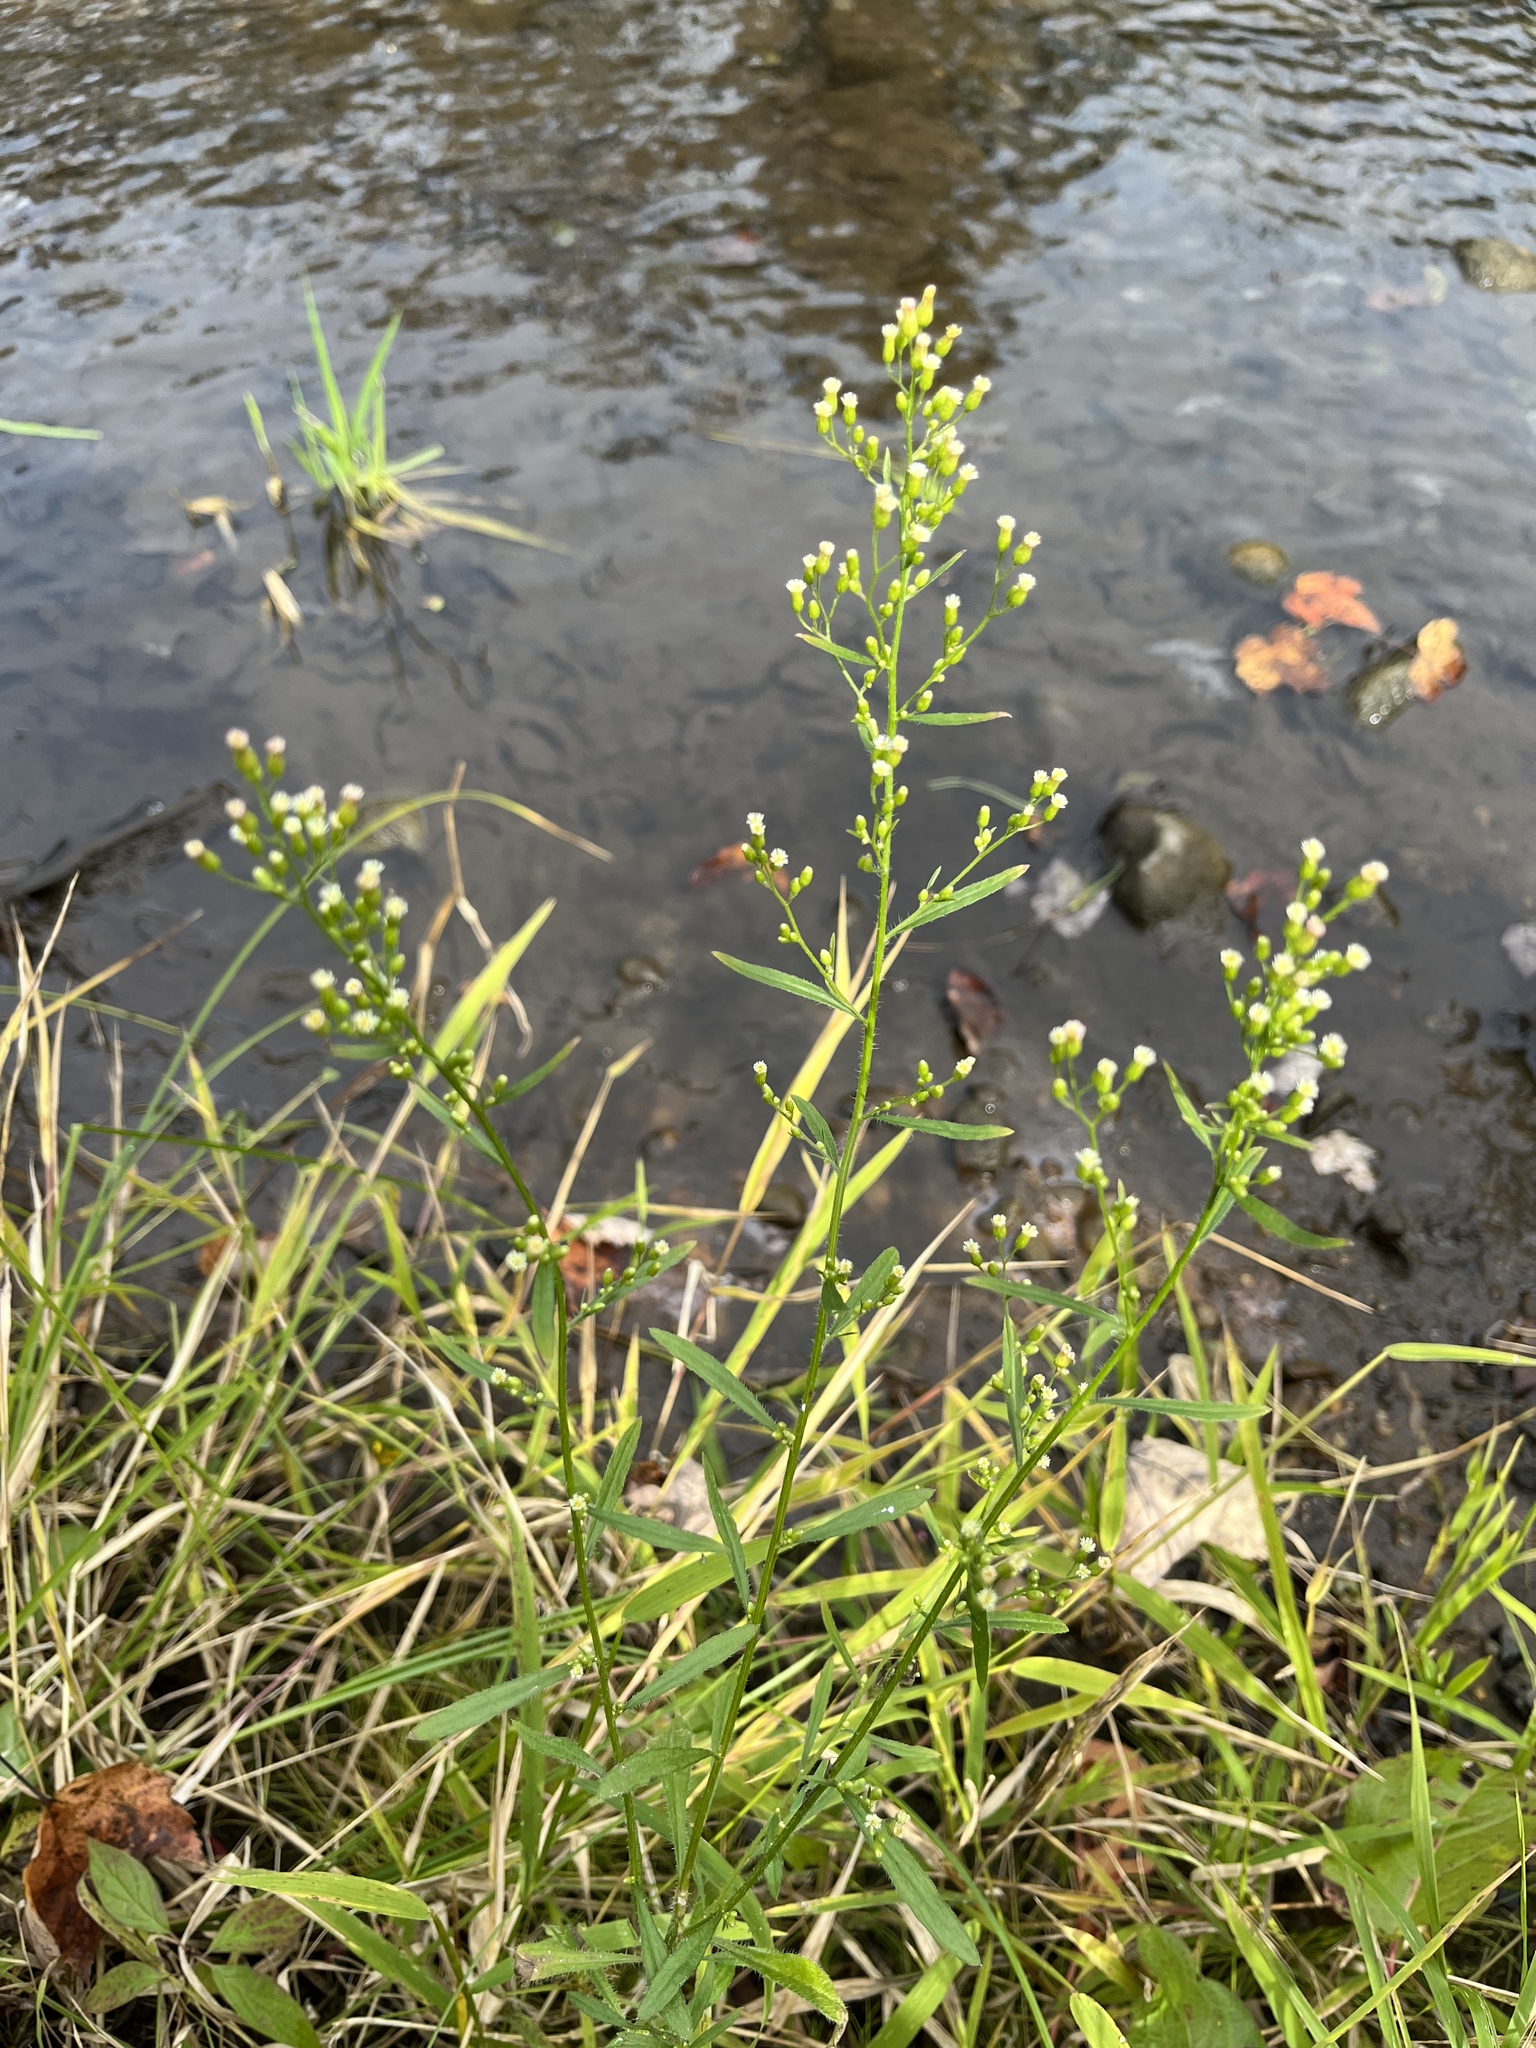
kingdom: Plantae
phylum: Tracheophyta
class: Magnoliopsida
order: Asterales
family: Asteraceae
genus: Erigeron
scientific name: Erigeron canadensis
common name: Canadian fleabane
